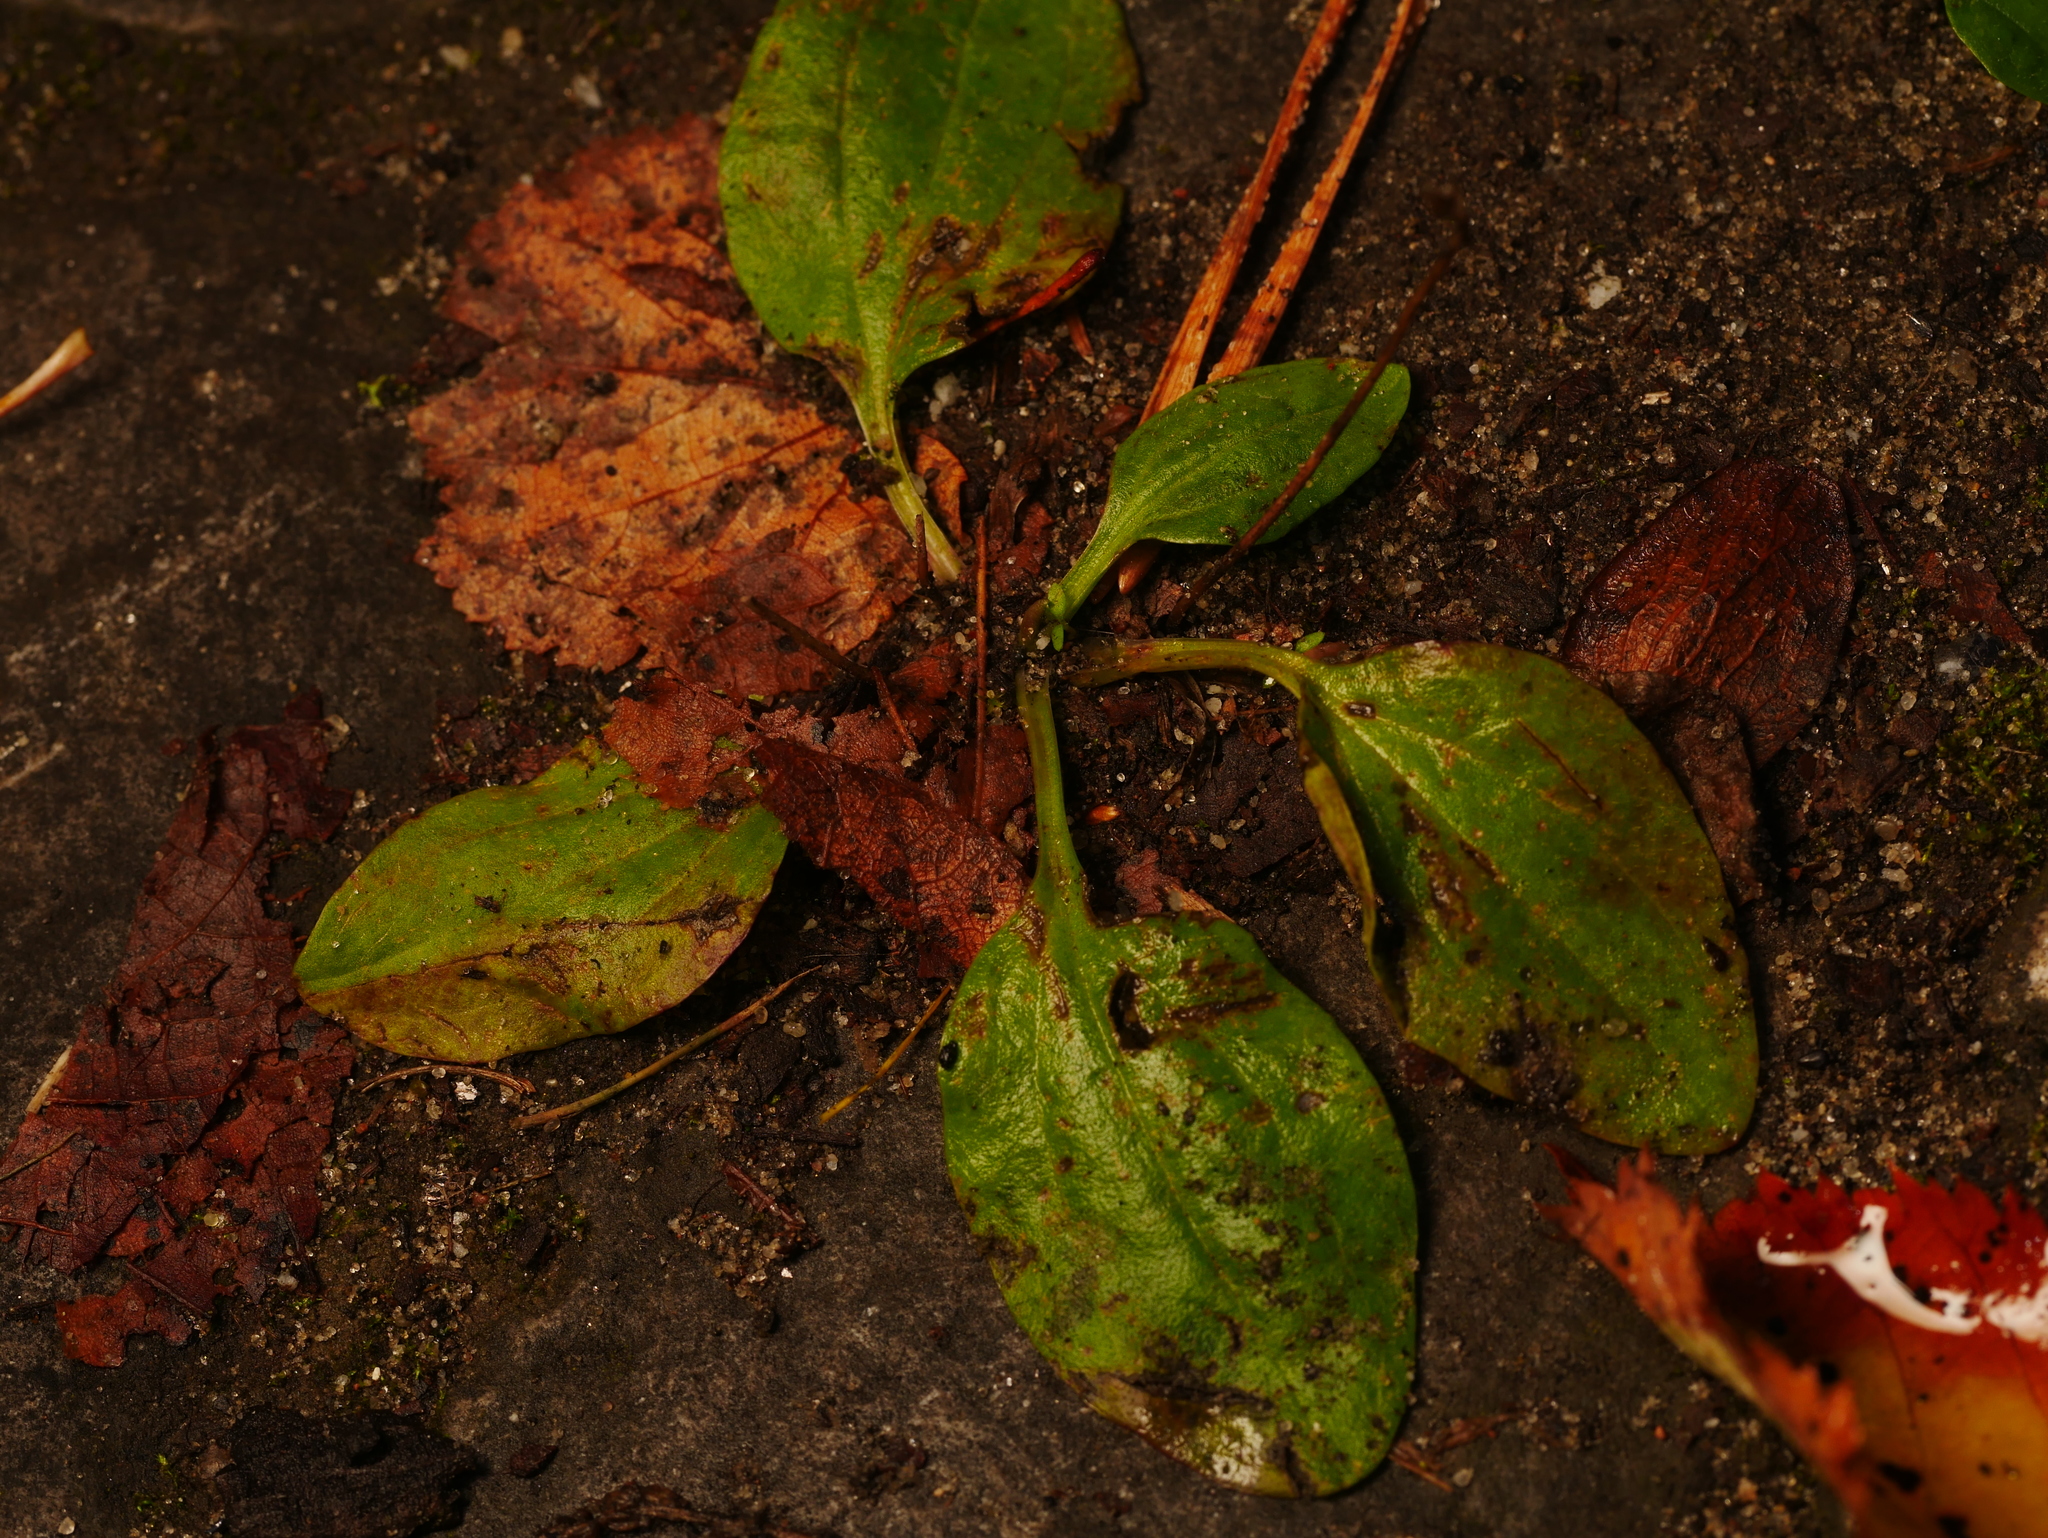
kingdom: Plantae
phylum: Tracheophyta
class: Magnoliopsida
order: Lamiales
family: Plantaginaceae
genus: Plantago
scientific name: Plantago major
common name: Common plantain
